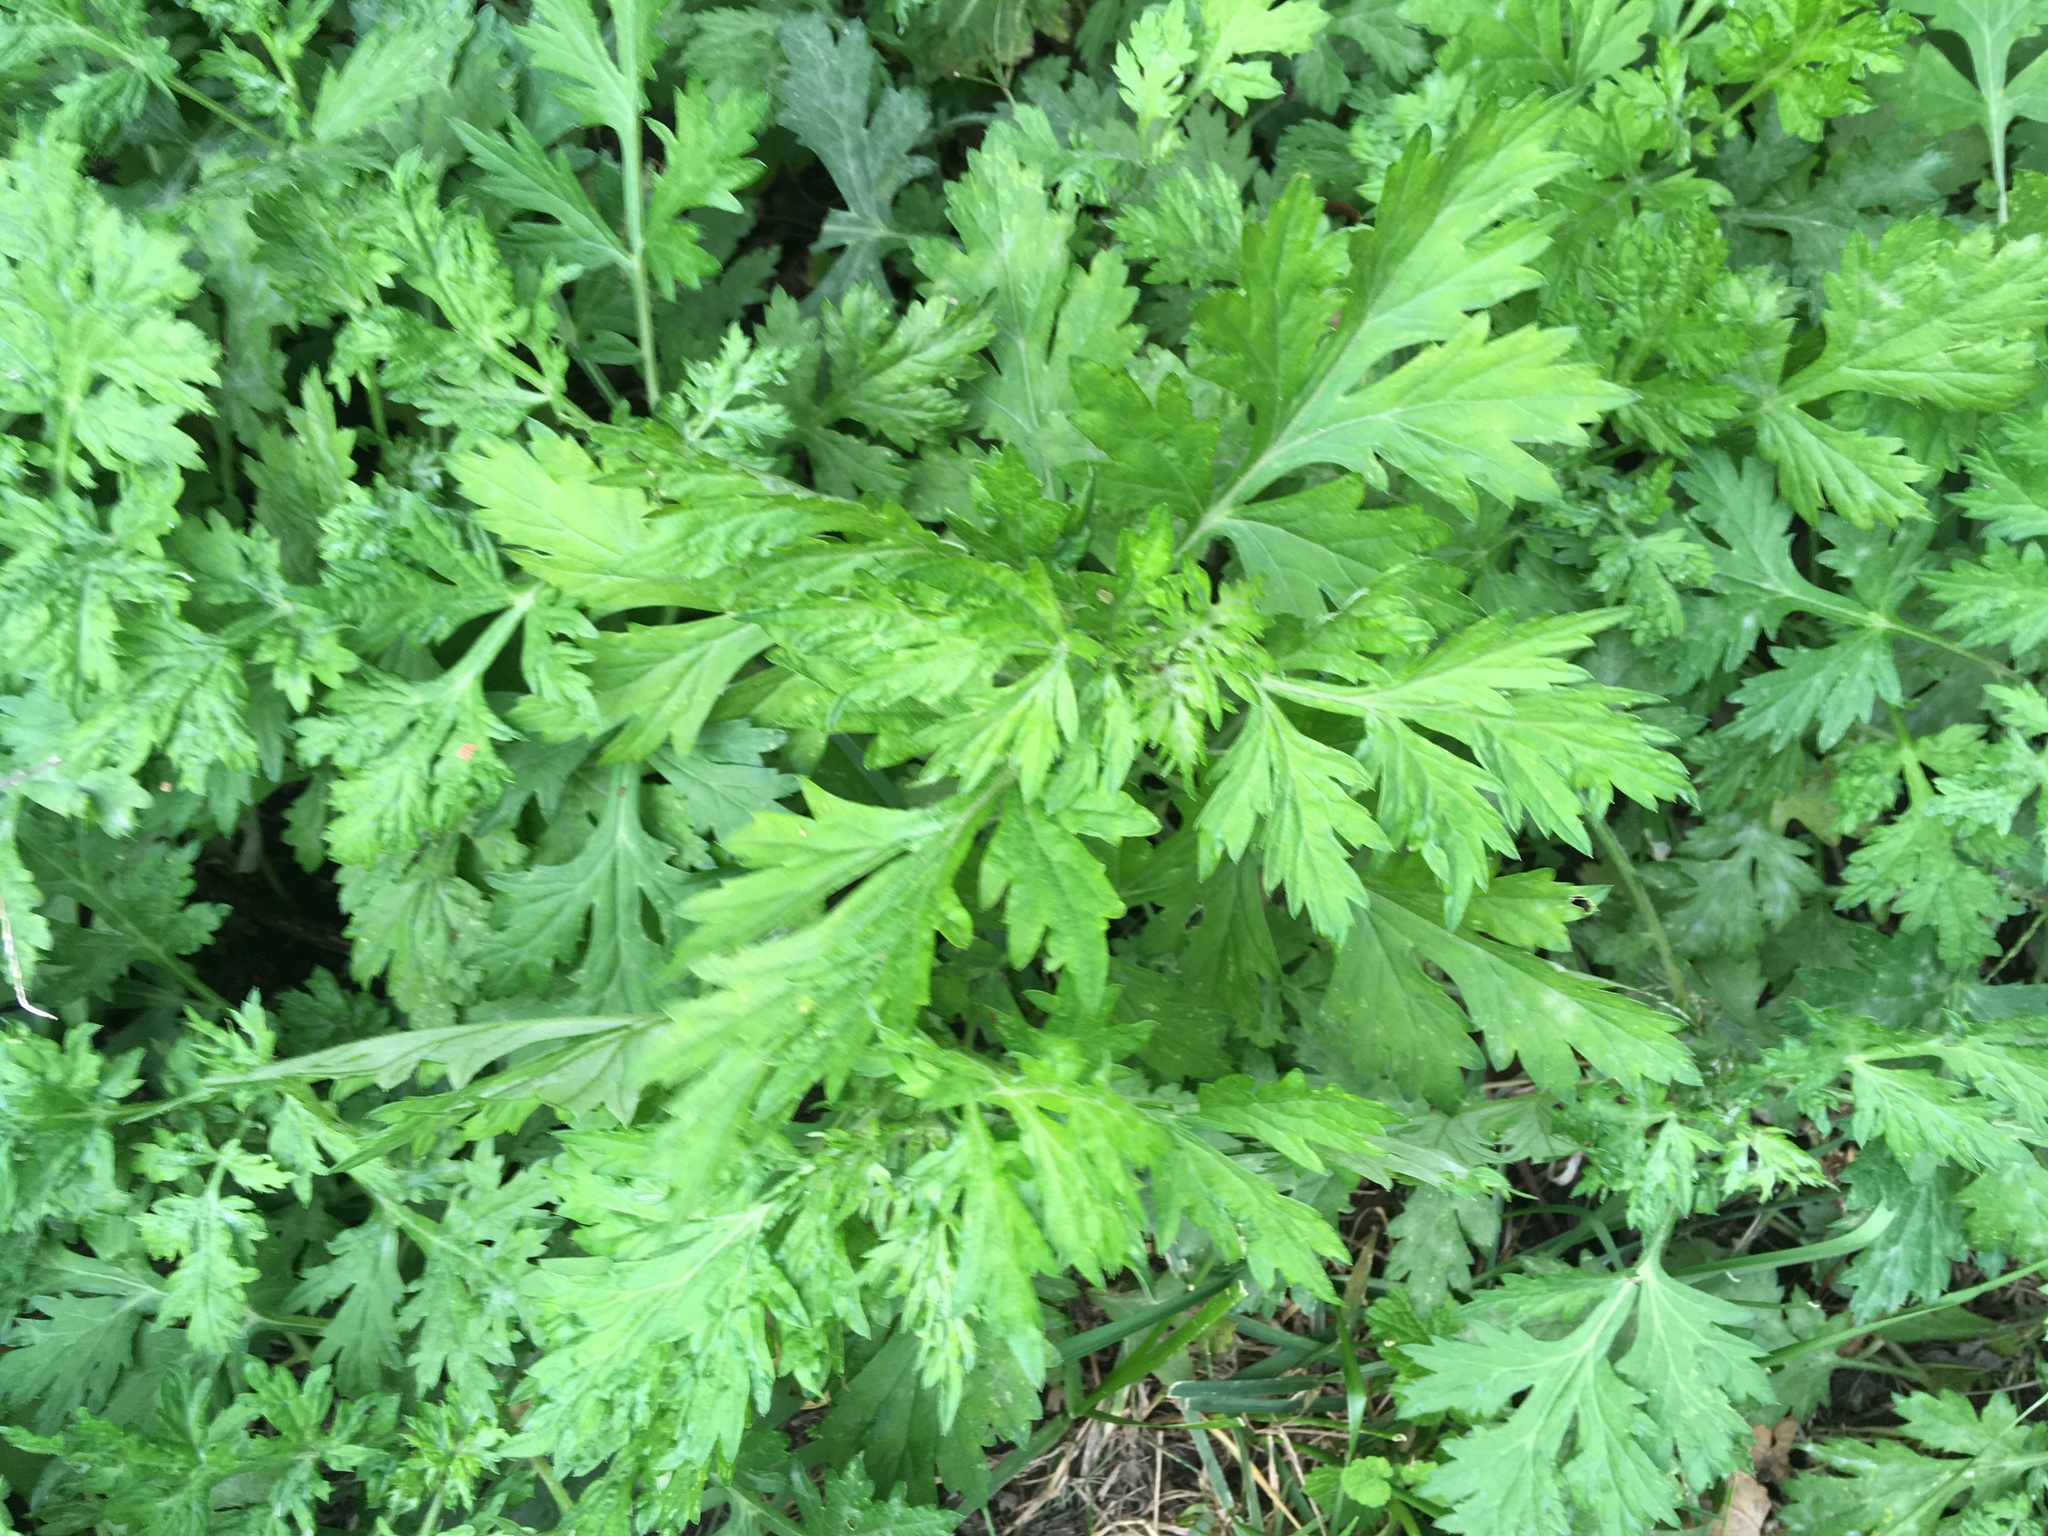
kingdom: Plantae
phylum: Tracheophyta
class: Magnoliopsida
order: Asterales
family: Asteraceae
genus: Artemisia
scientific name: Artemisia vulgaris
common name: Mugwort
